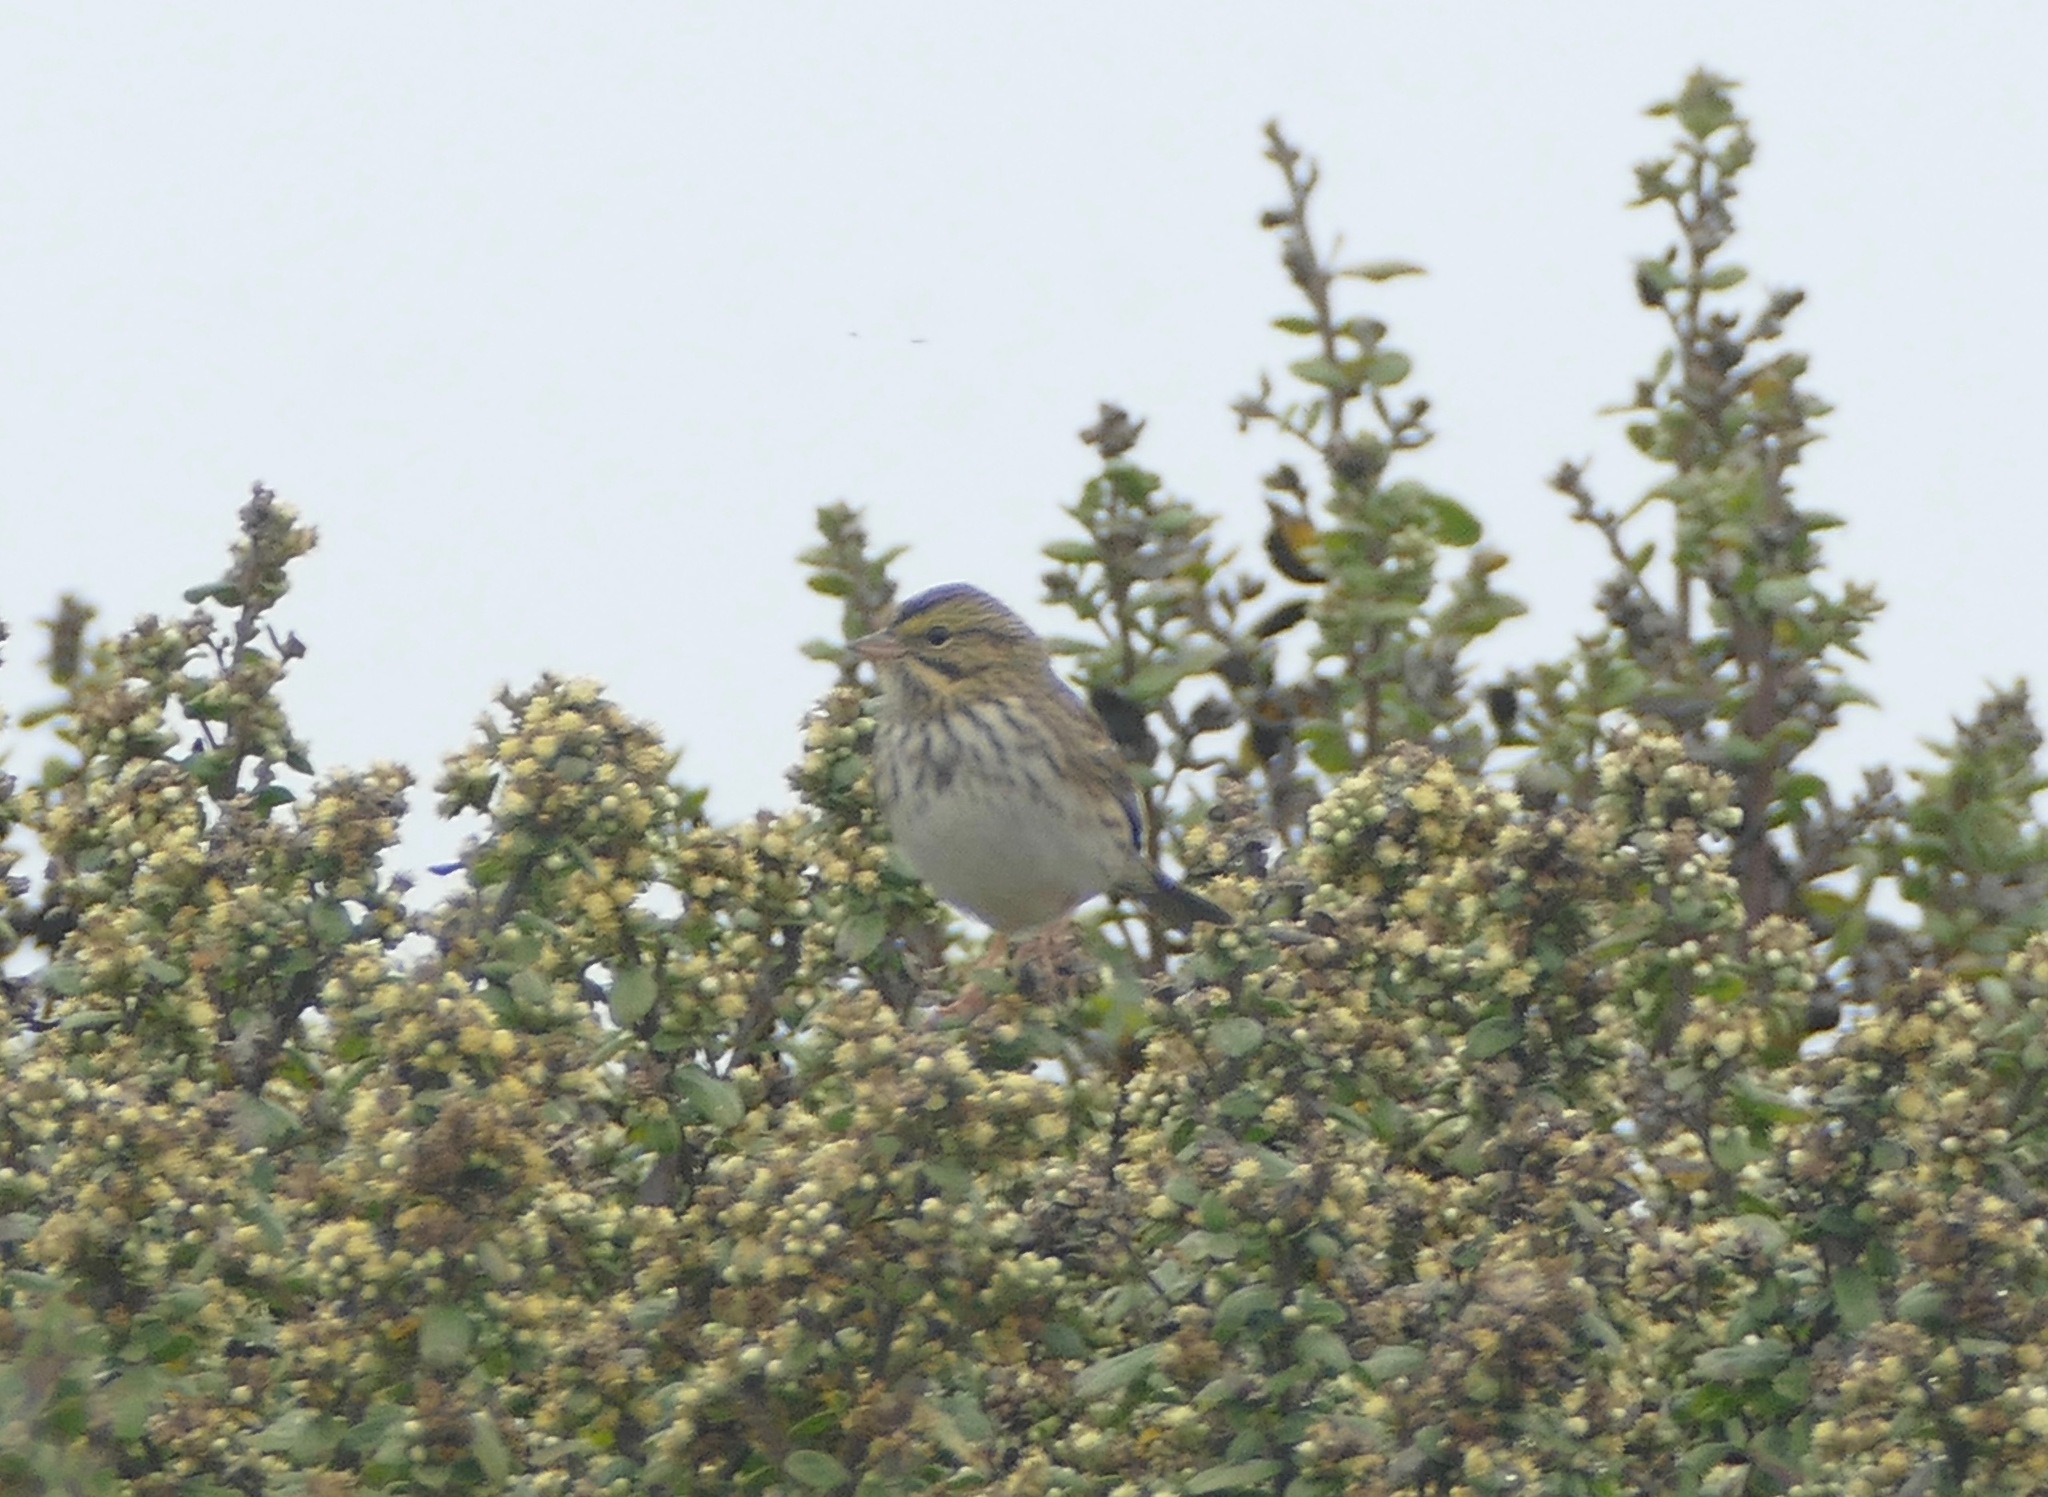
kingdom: Animalia
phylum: Chordata
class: Aves
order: Passeriformes
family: Passerellidae
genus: Passerculus
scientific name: Passerculus sandwichensis
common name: Savannah sparrow
